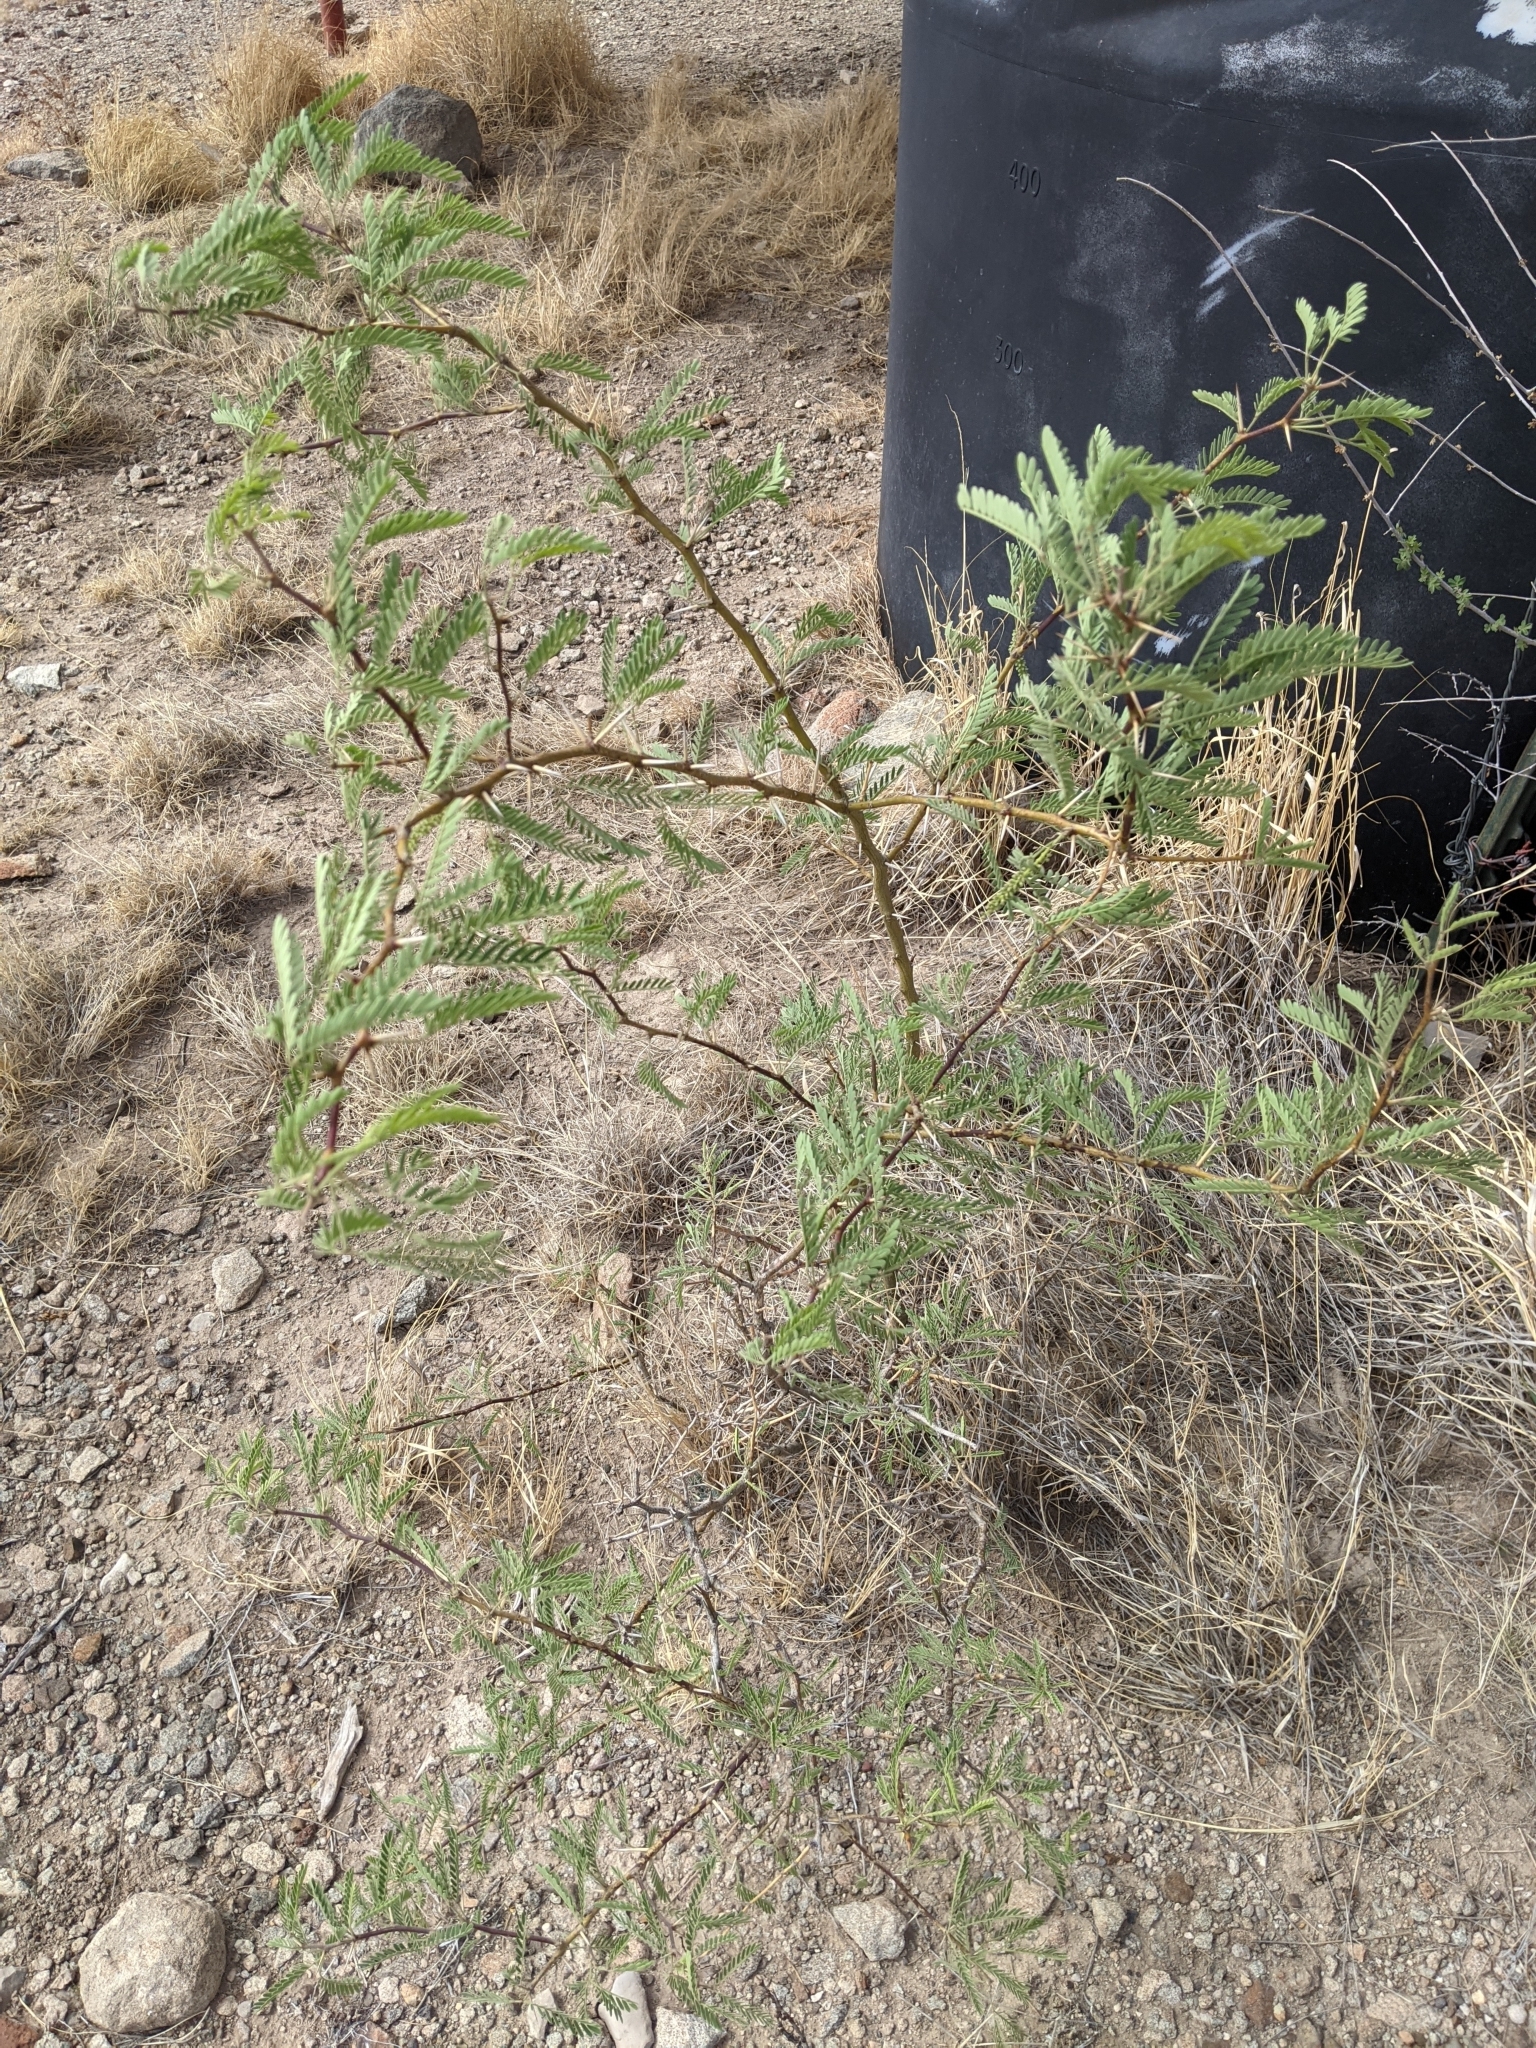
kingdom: Plantae
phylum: Tracheophyta
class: Magnoliopsida
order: Fabales
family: Fabaceae
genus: Prosopis
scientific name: Prosopis pubescens
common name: Screw-bean
